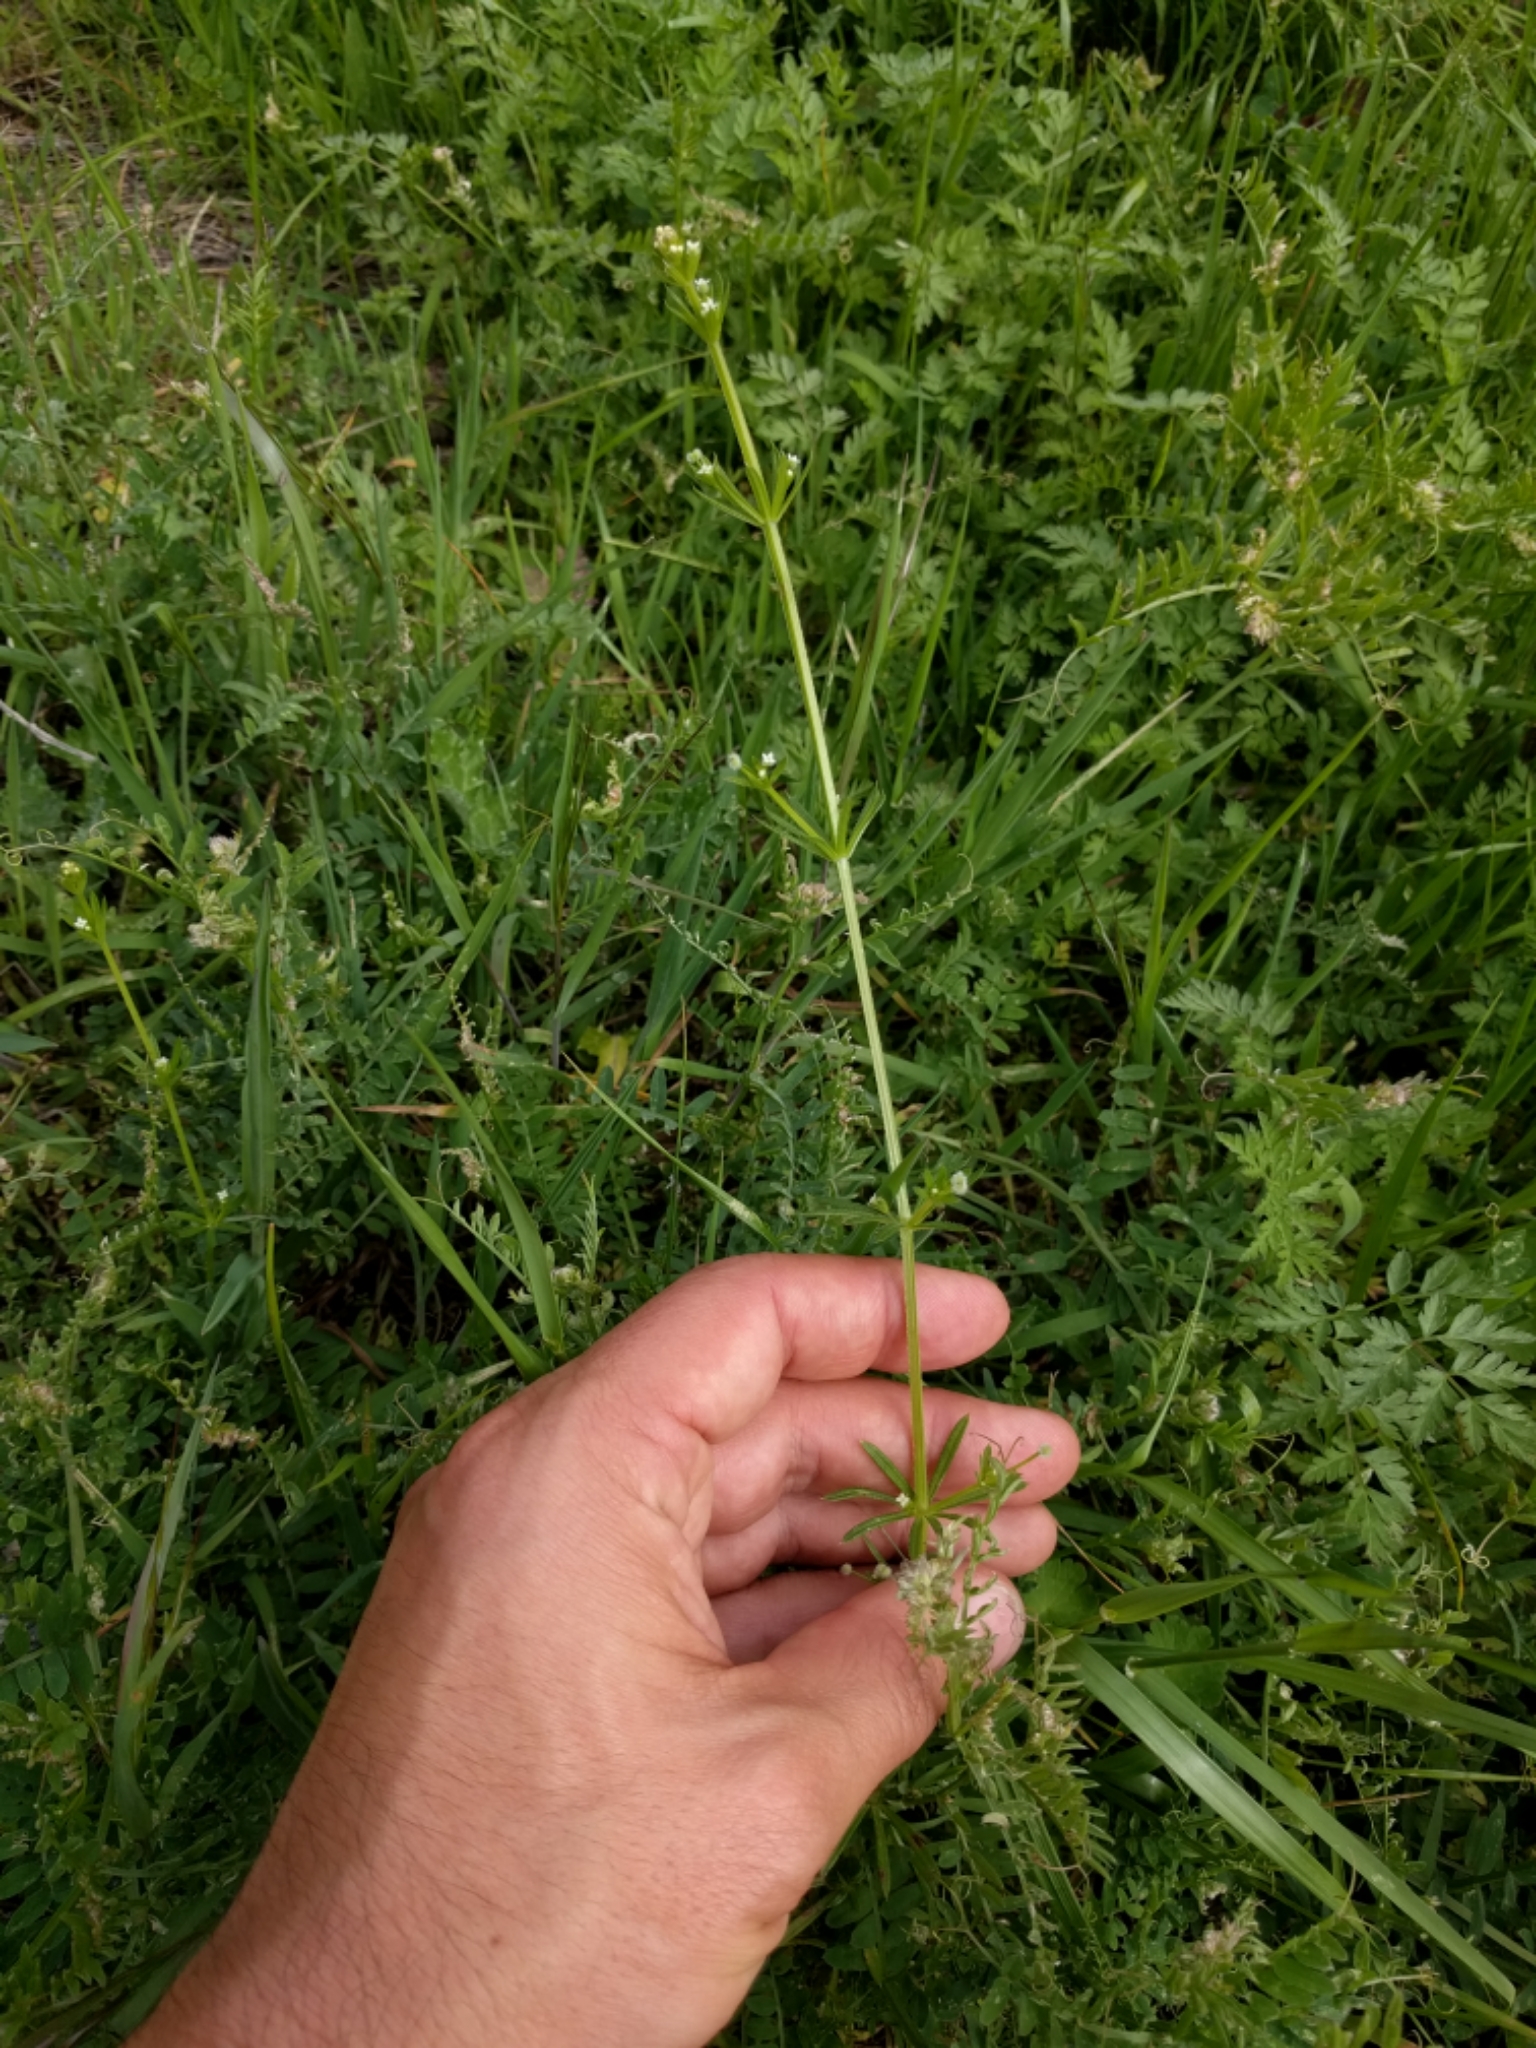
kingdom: Plantae
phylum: Tracheophyta
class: Magnoliopsida
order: Gentianales
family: Rubiaceae
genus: Galium
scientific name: Galium aparine
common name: Cleavers
